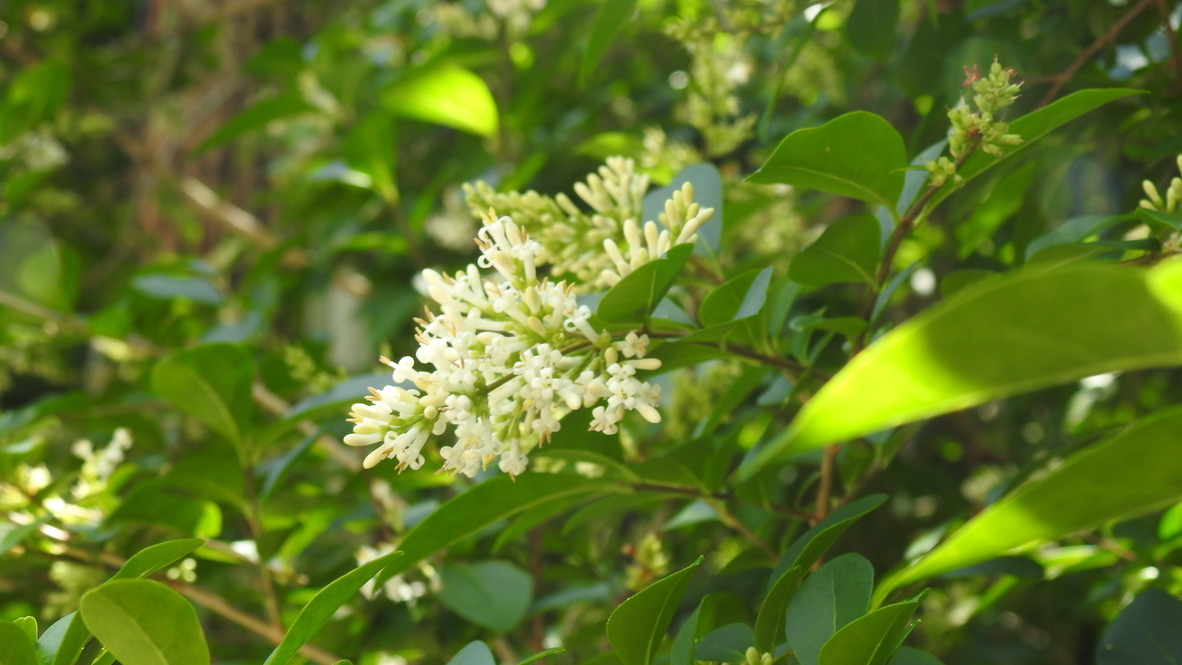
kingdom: Plantae
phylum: Tracheophyta
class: Magnoliopsida
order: Lamiales
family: Oleaceae
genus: Ligustrum
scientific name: Ligustrum ovalifolium
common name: California privet
